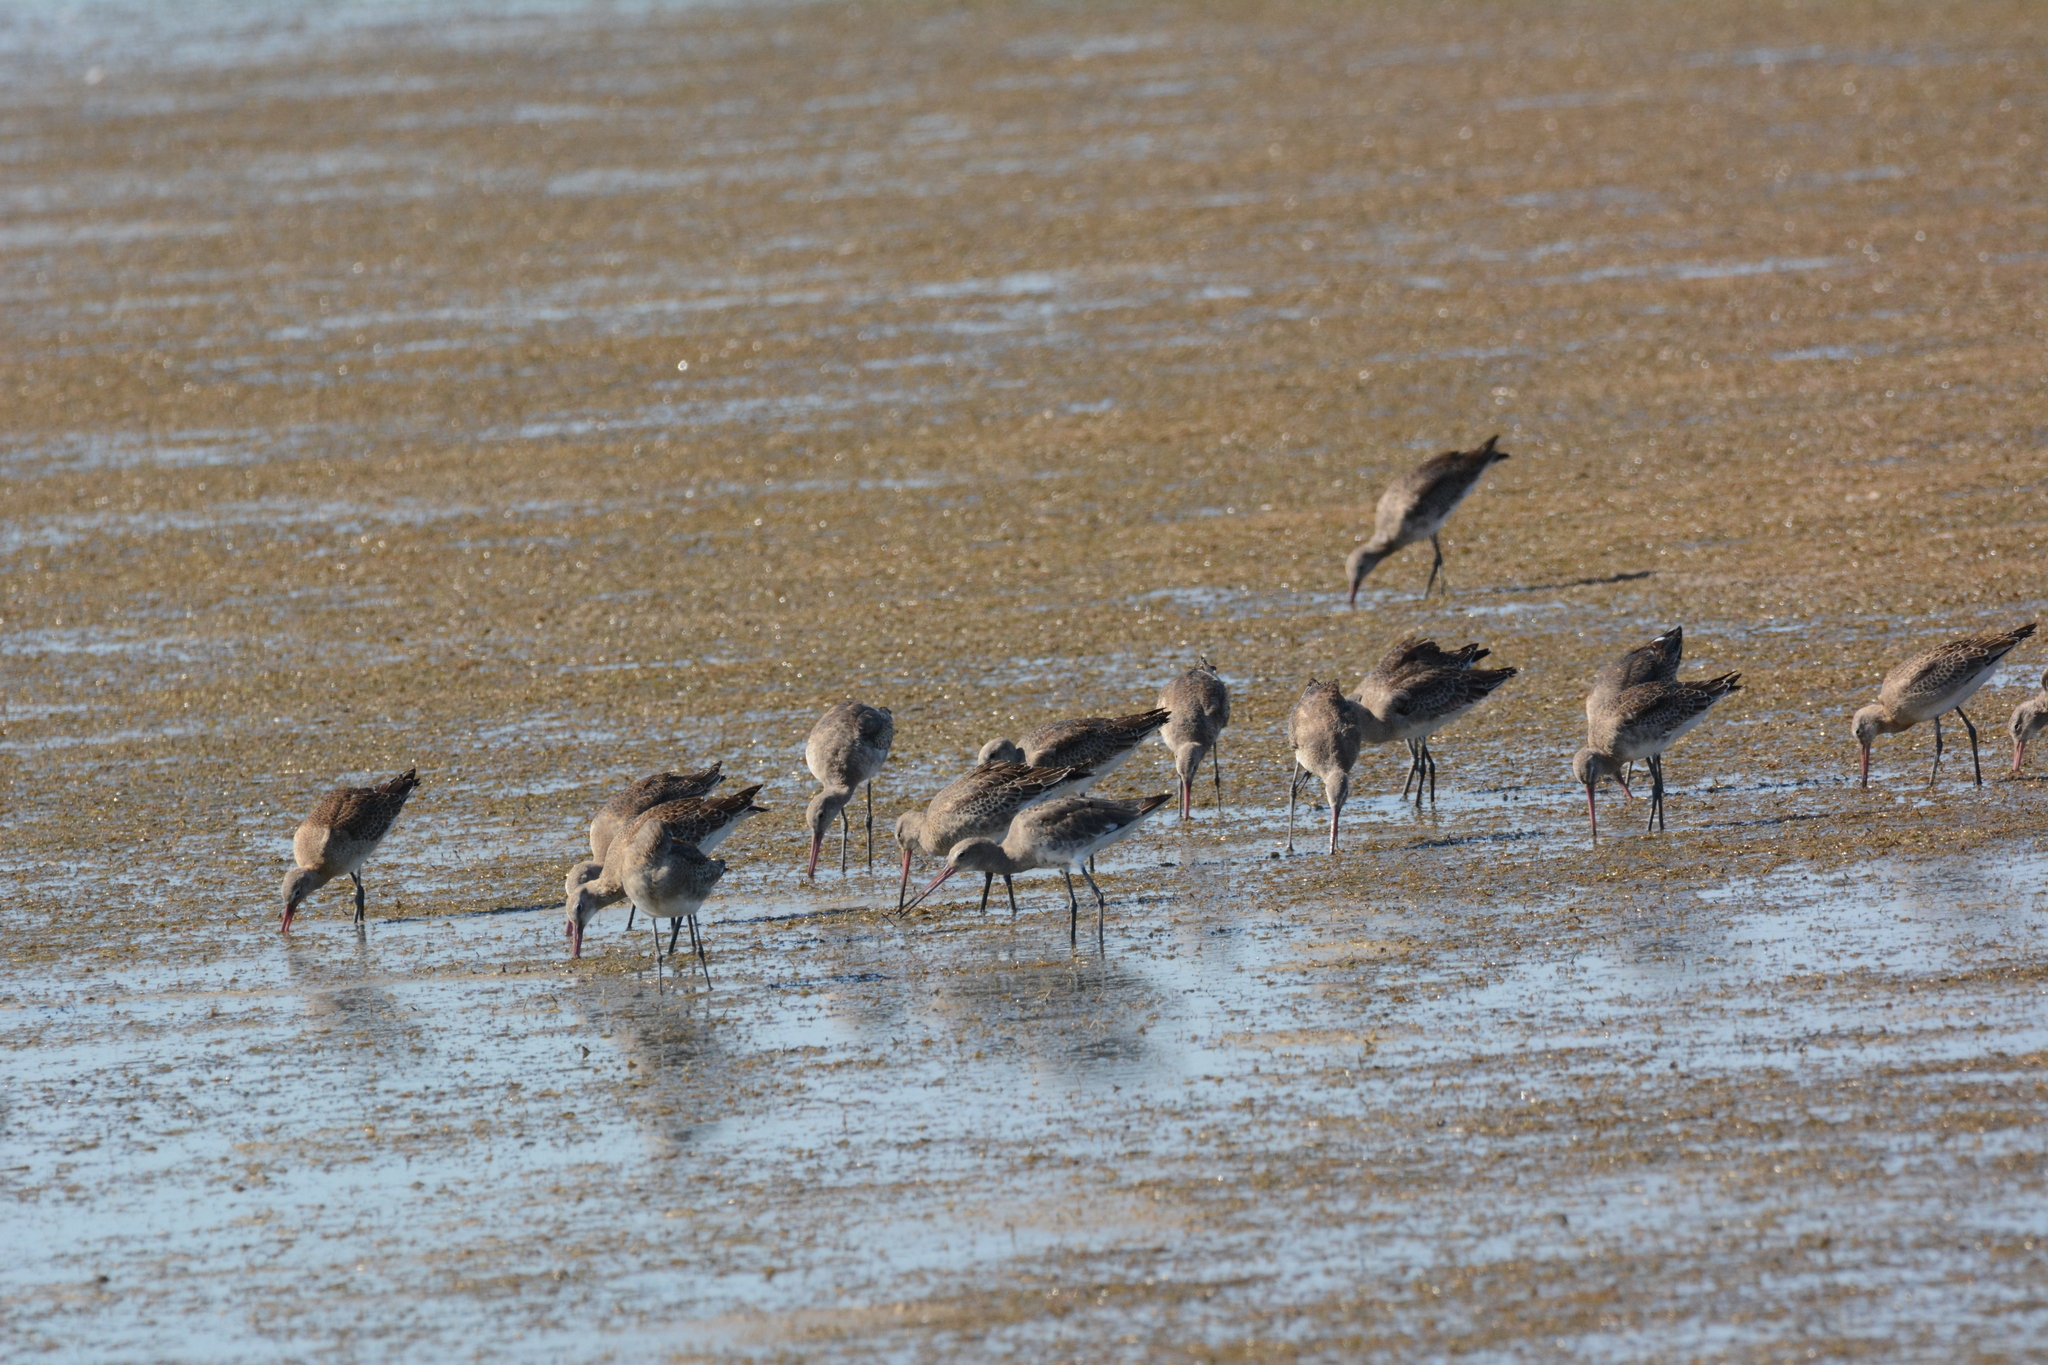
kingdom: Animalia
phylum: Chordata
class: Aves
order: Charadriiformes
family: Scolopacidae
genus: Limosa
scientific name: Limosa limosa
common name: Black-tailed godwit
